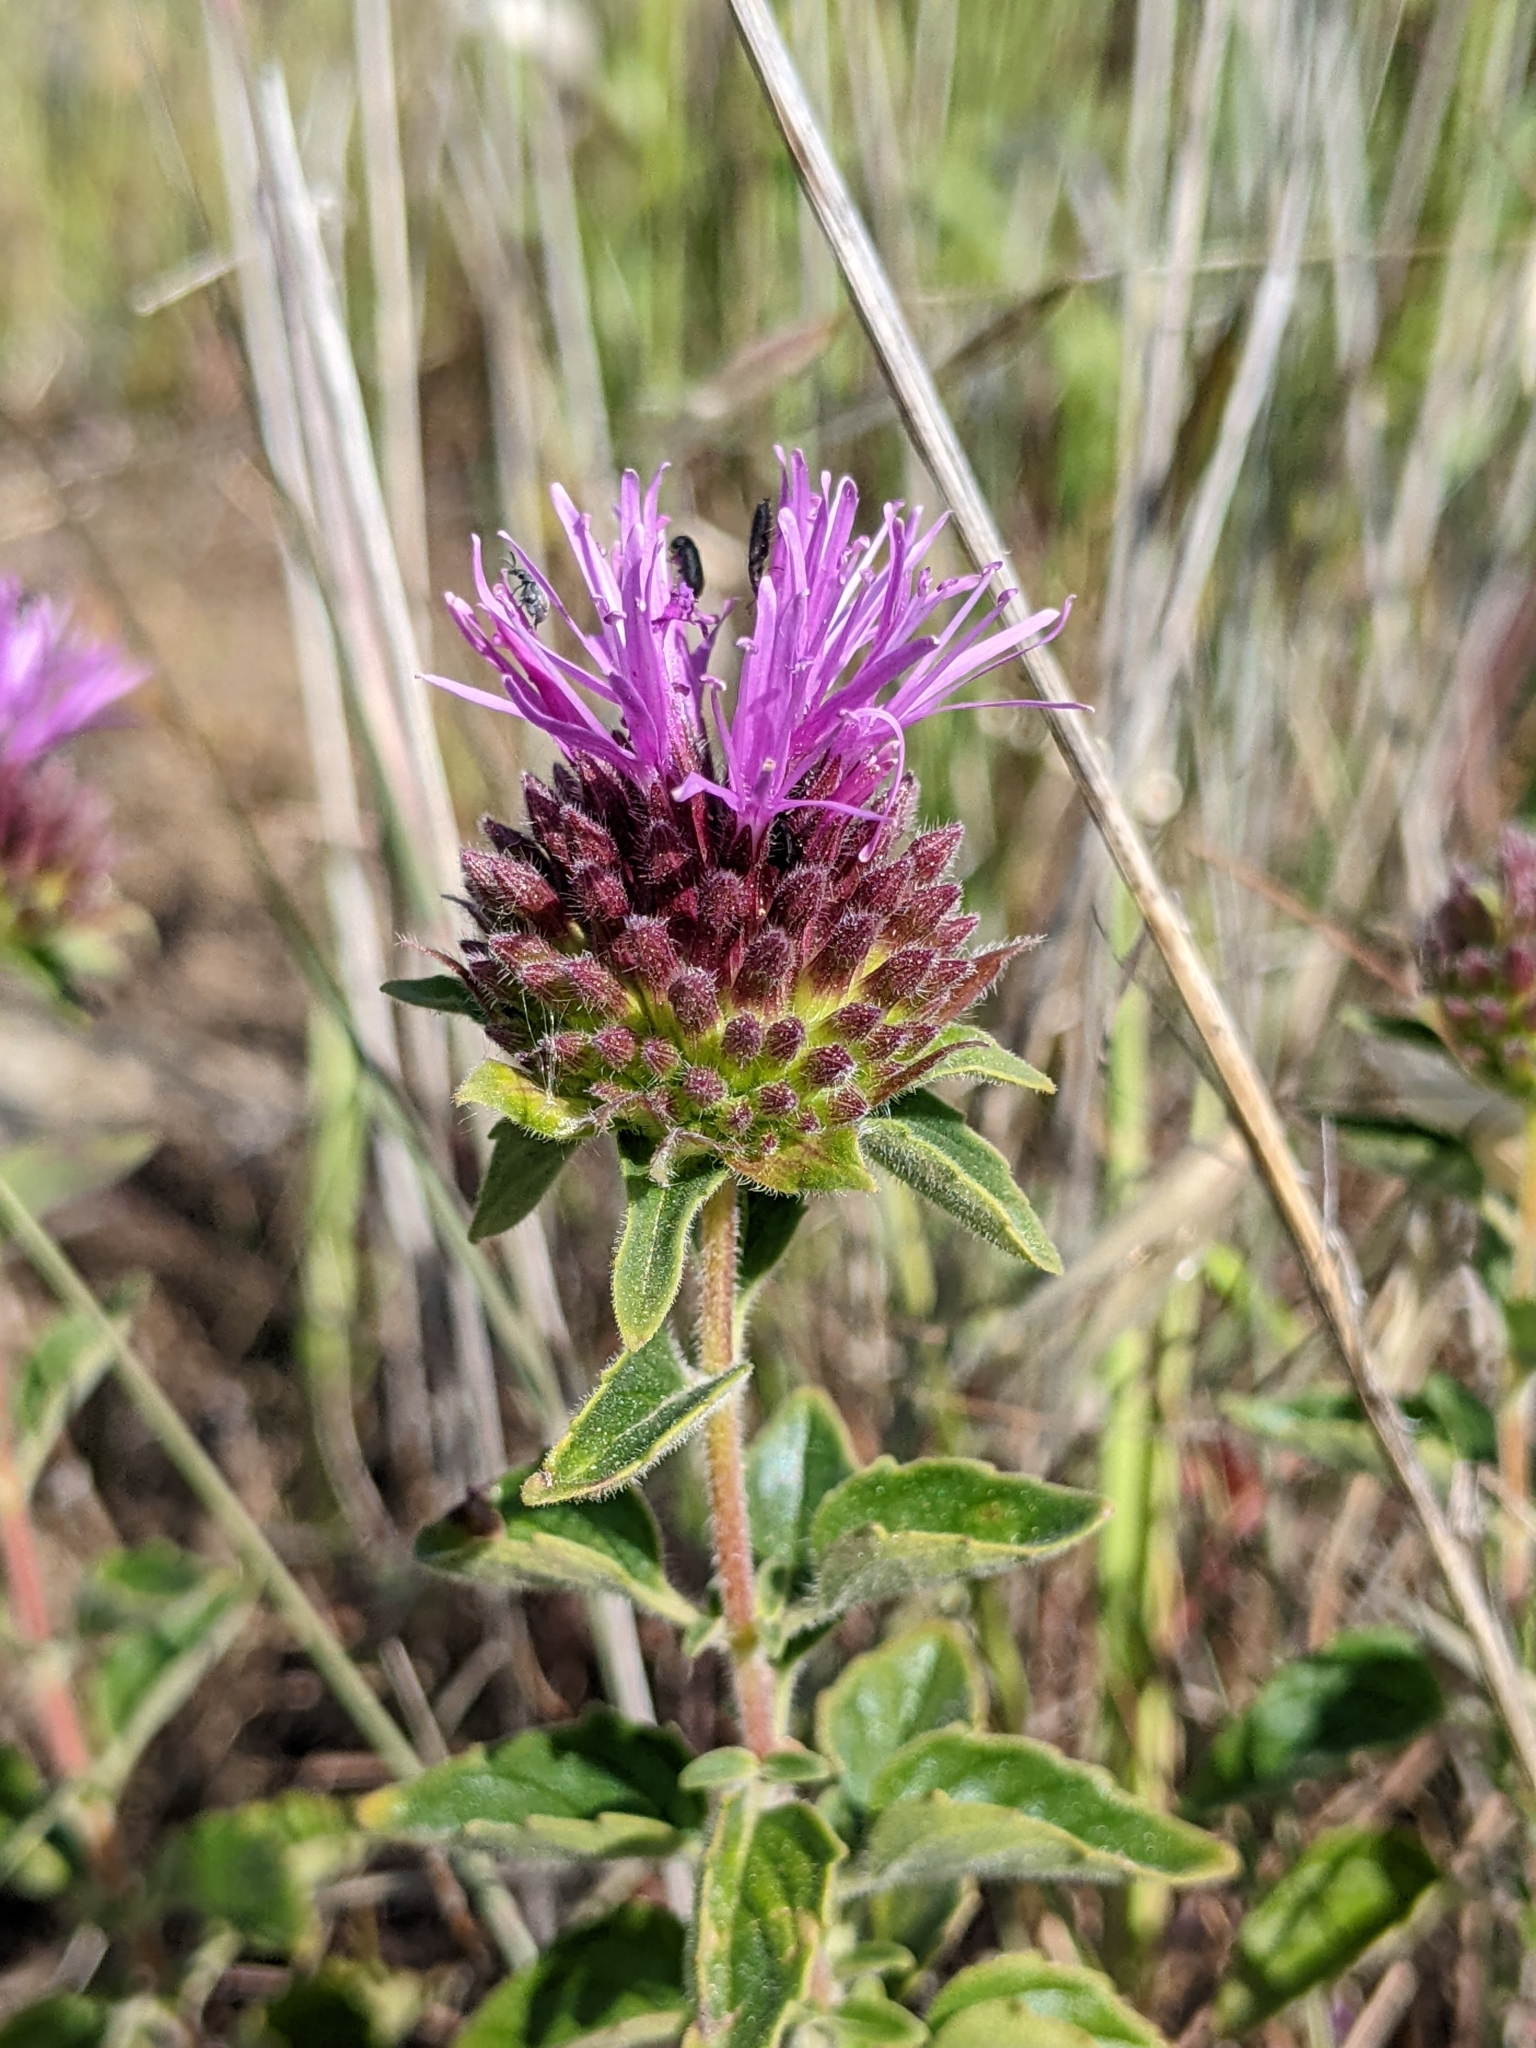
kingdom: Plantae
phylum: Tracheophyta
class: Magnoliopsida
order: Lamiales
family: Lamiaceae
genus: Monardella
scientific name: Monardella odoratissima
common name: Pacific monardella
